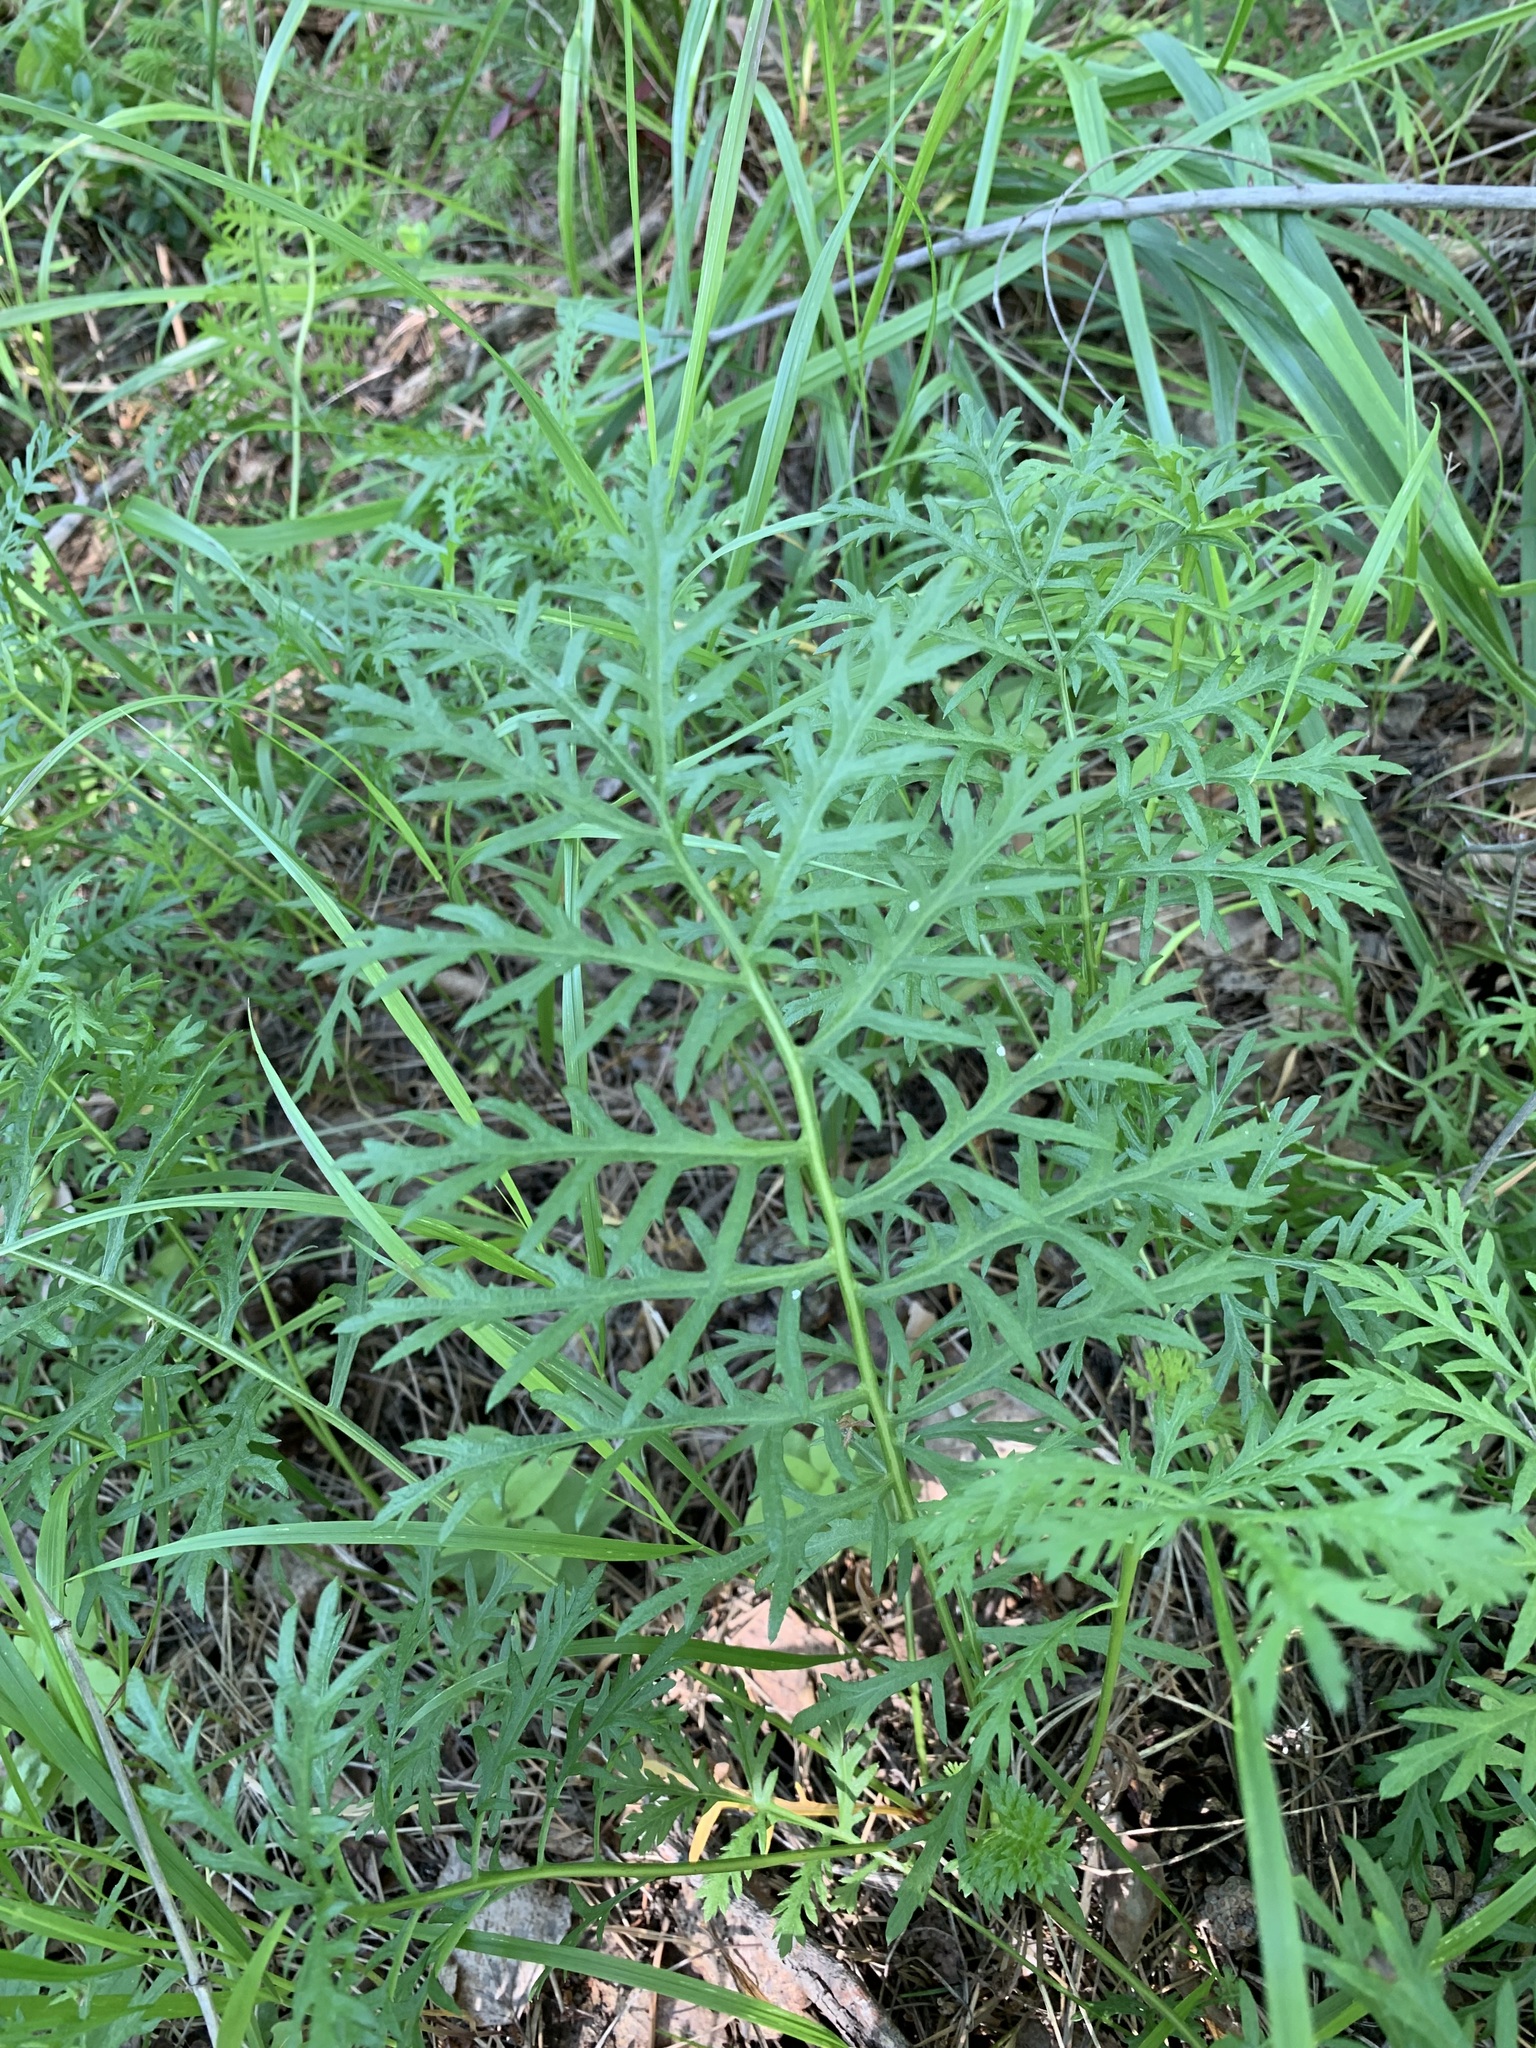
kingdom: Plantae
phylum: Tracheophyta
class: Magnoliopsida
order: Asterales
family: Asteraceae
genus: Artemisia
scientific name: Artemisia latifolia
